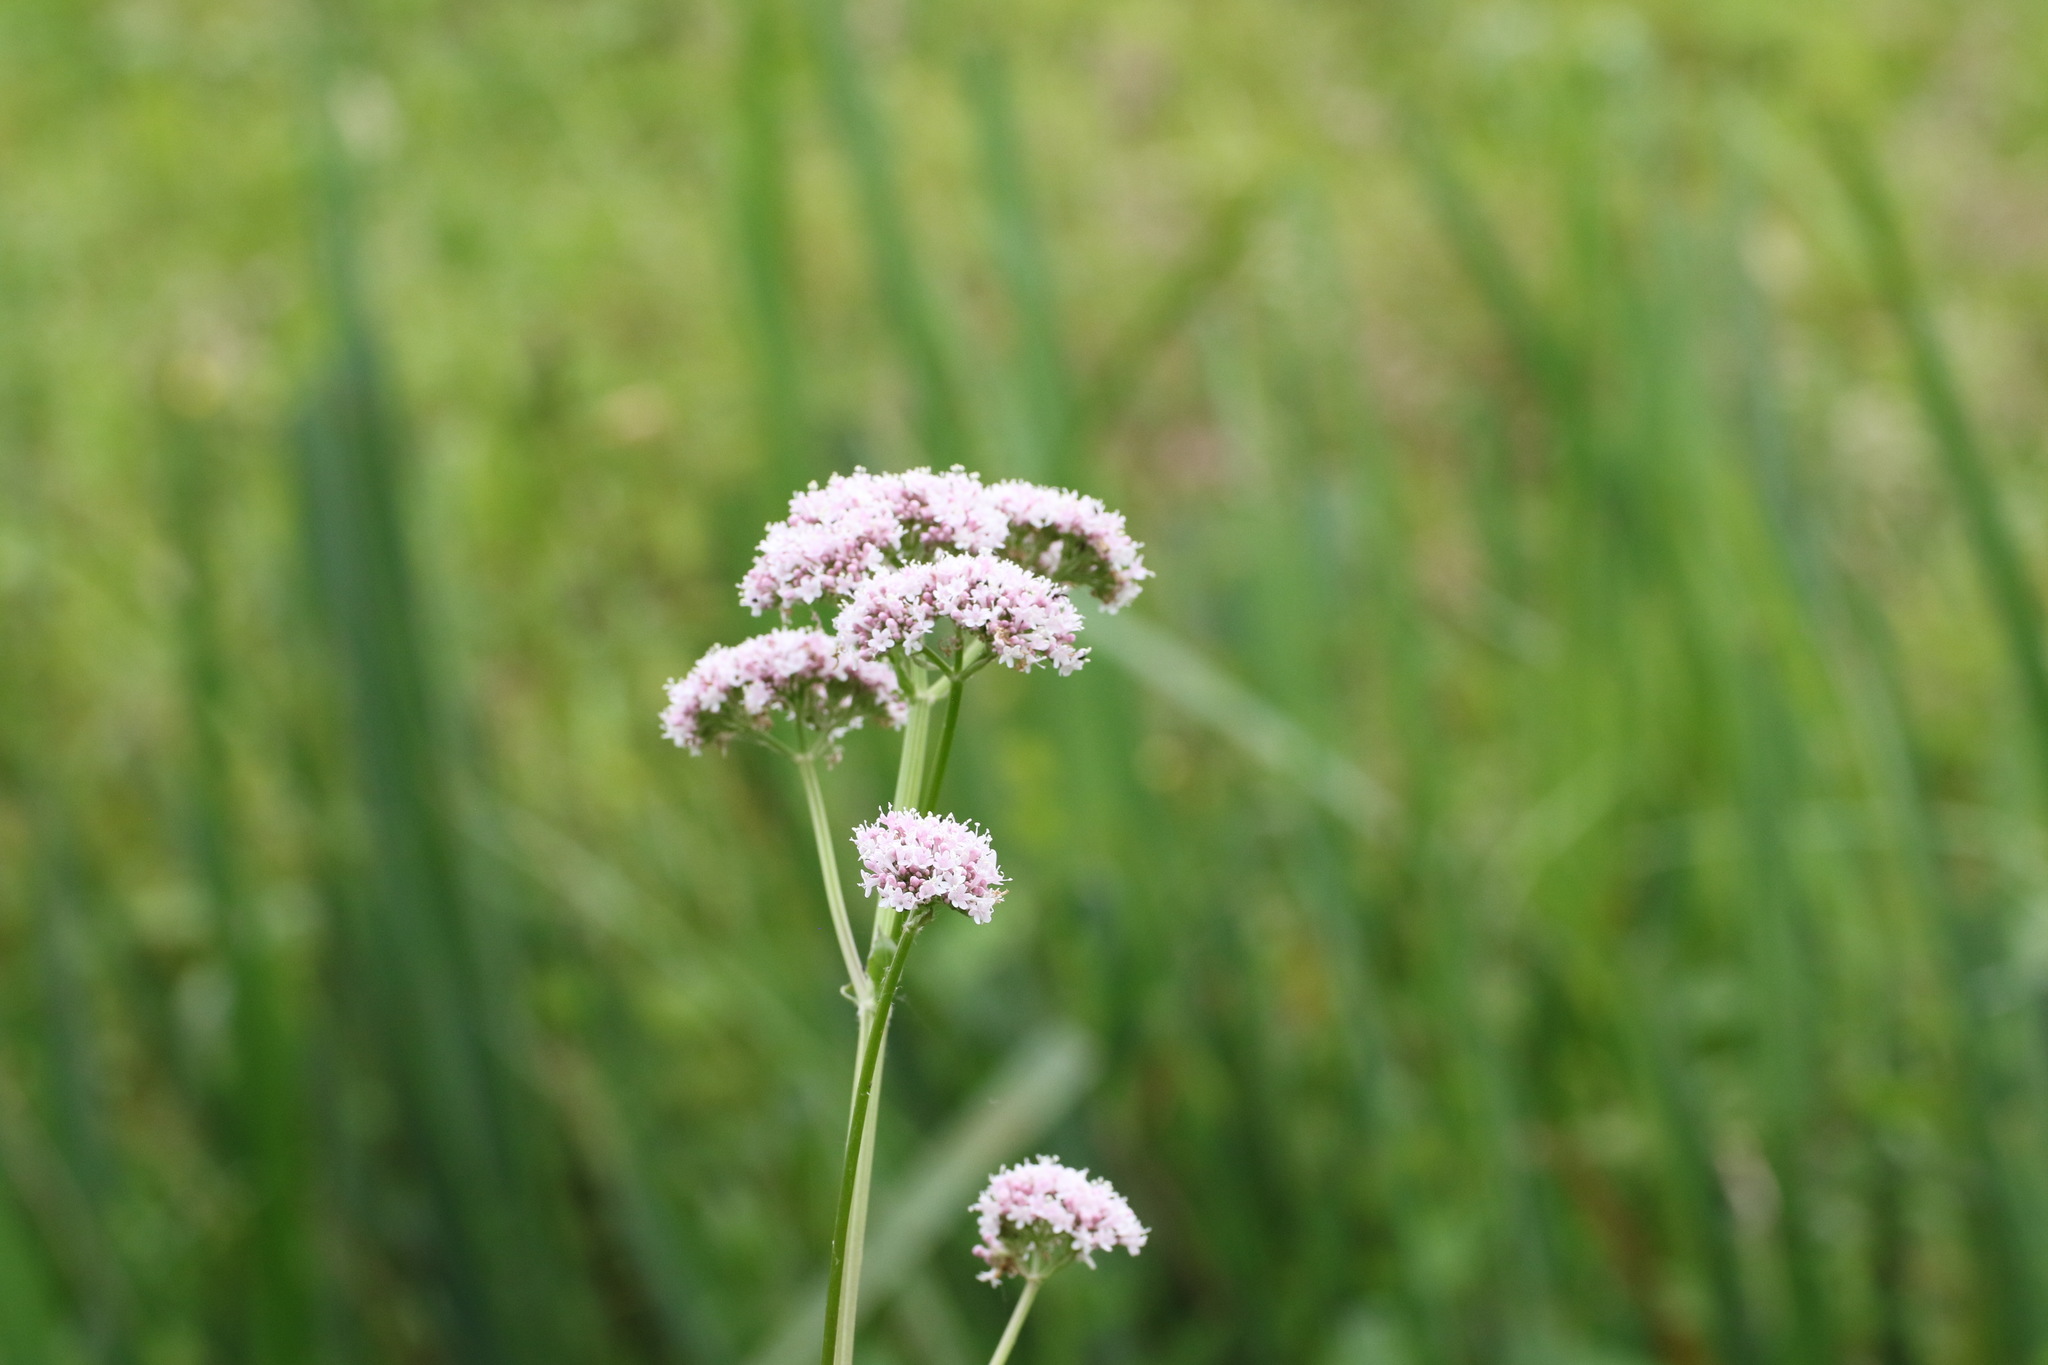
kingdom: Plantae
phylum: Tracheophyta
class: Magnoliopsida
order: Dipsacales
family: Caprifoliaceae
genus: Valeriana
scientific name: Valeriana officinalis
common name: Common valerian
